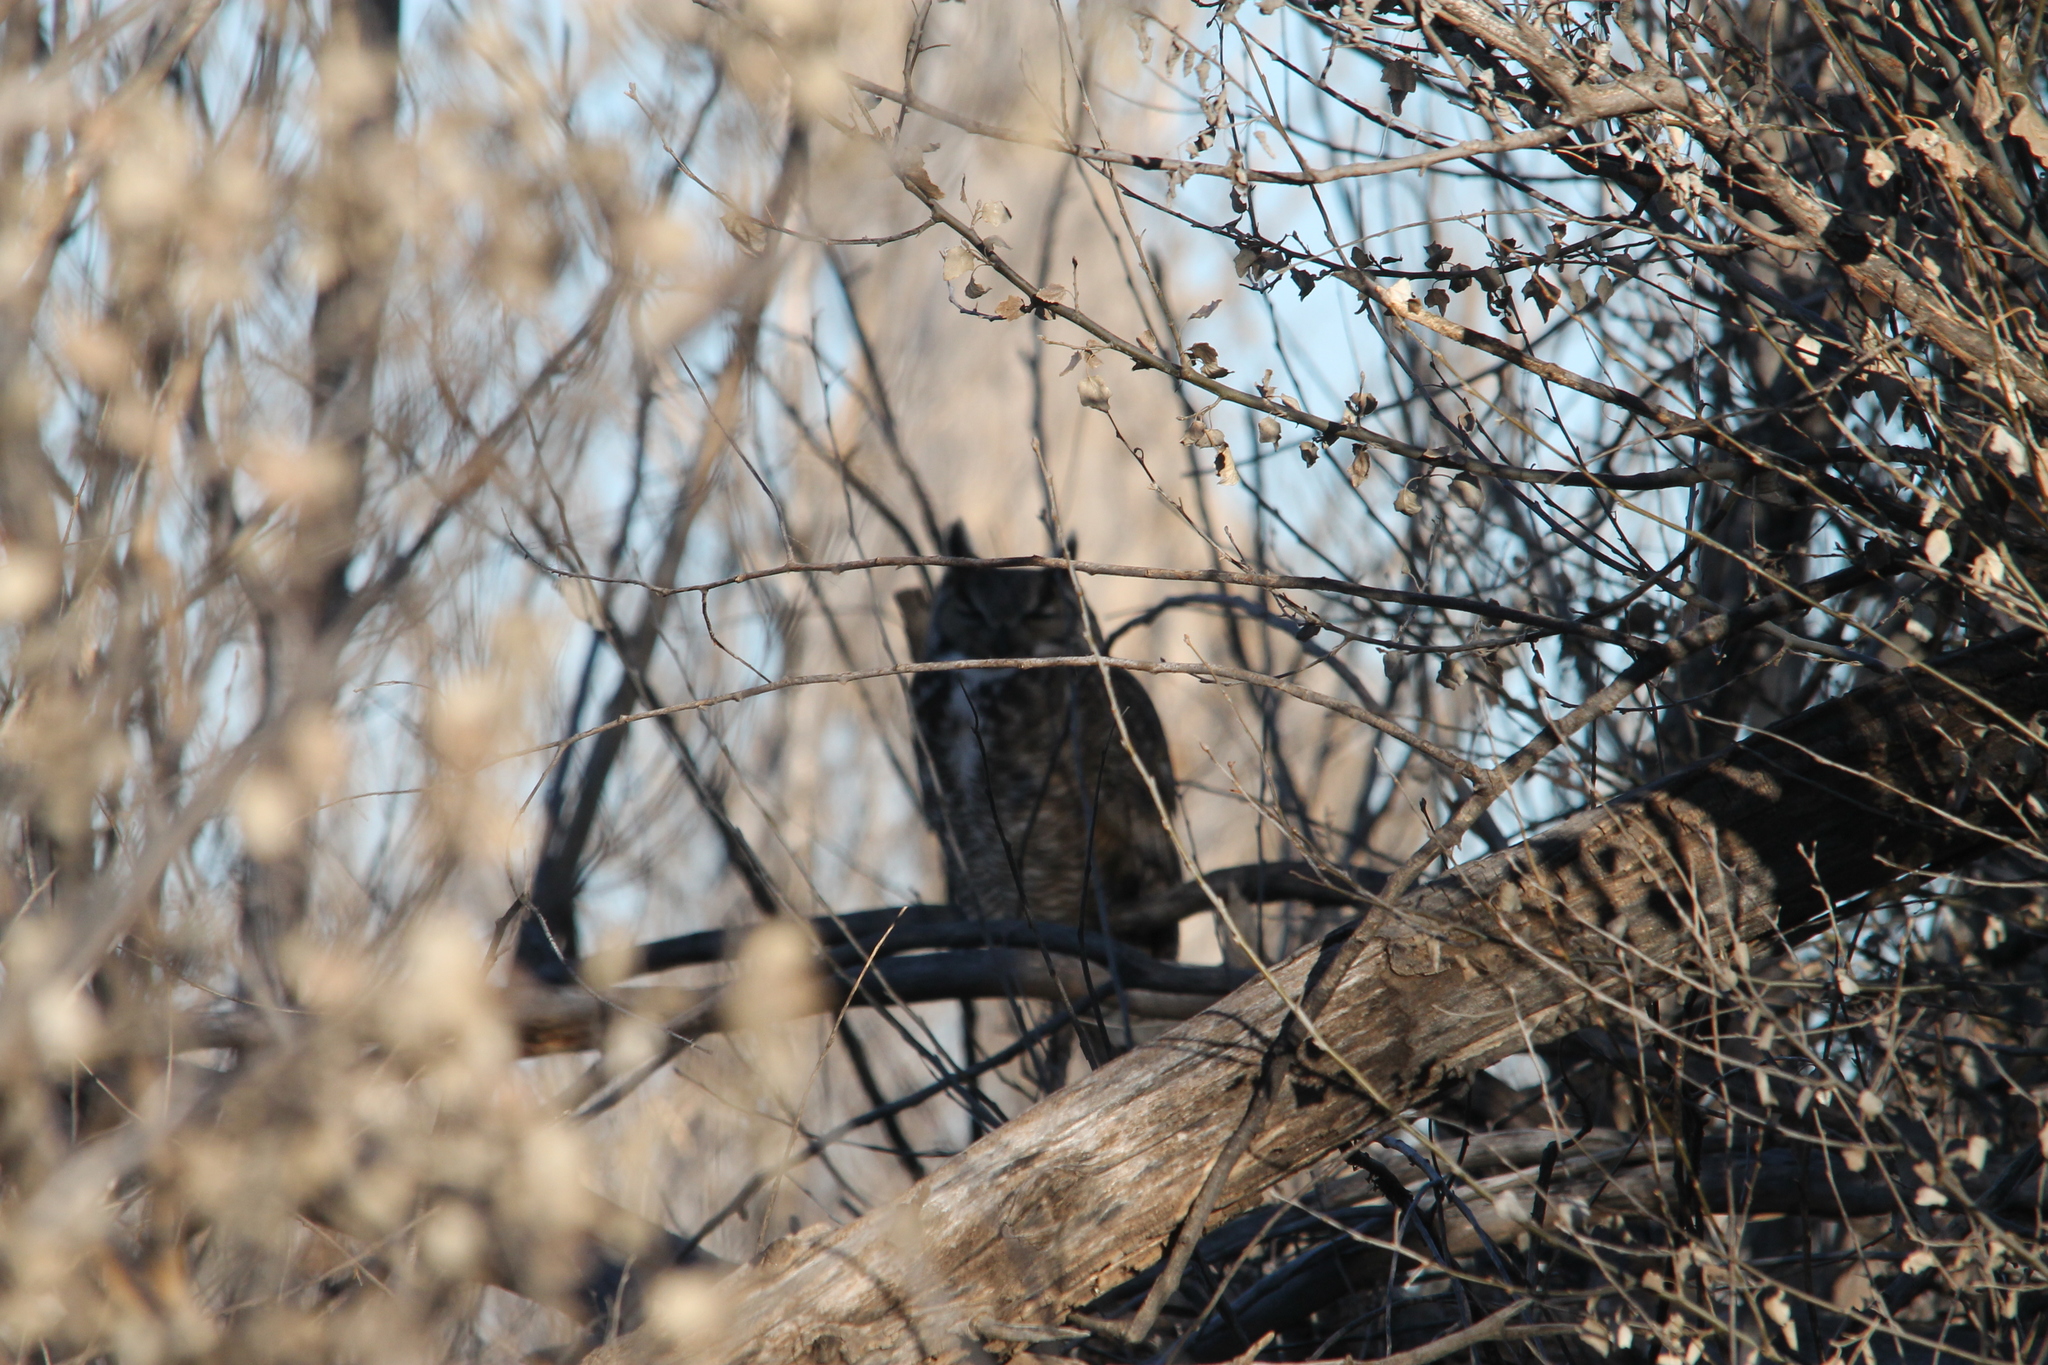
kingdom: Animalia
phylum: Chordata
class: Aves
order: Strigiformes
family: Strigidae
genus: Bubo
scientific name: Bubo virginianus
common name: Great horned owl
